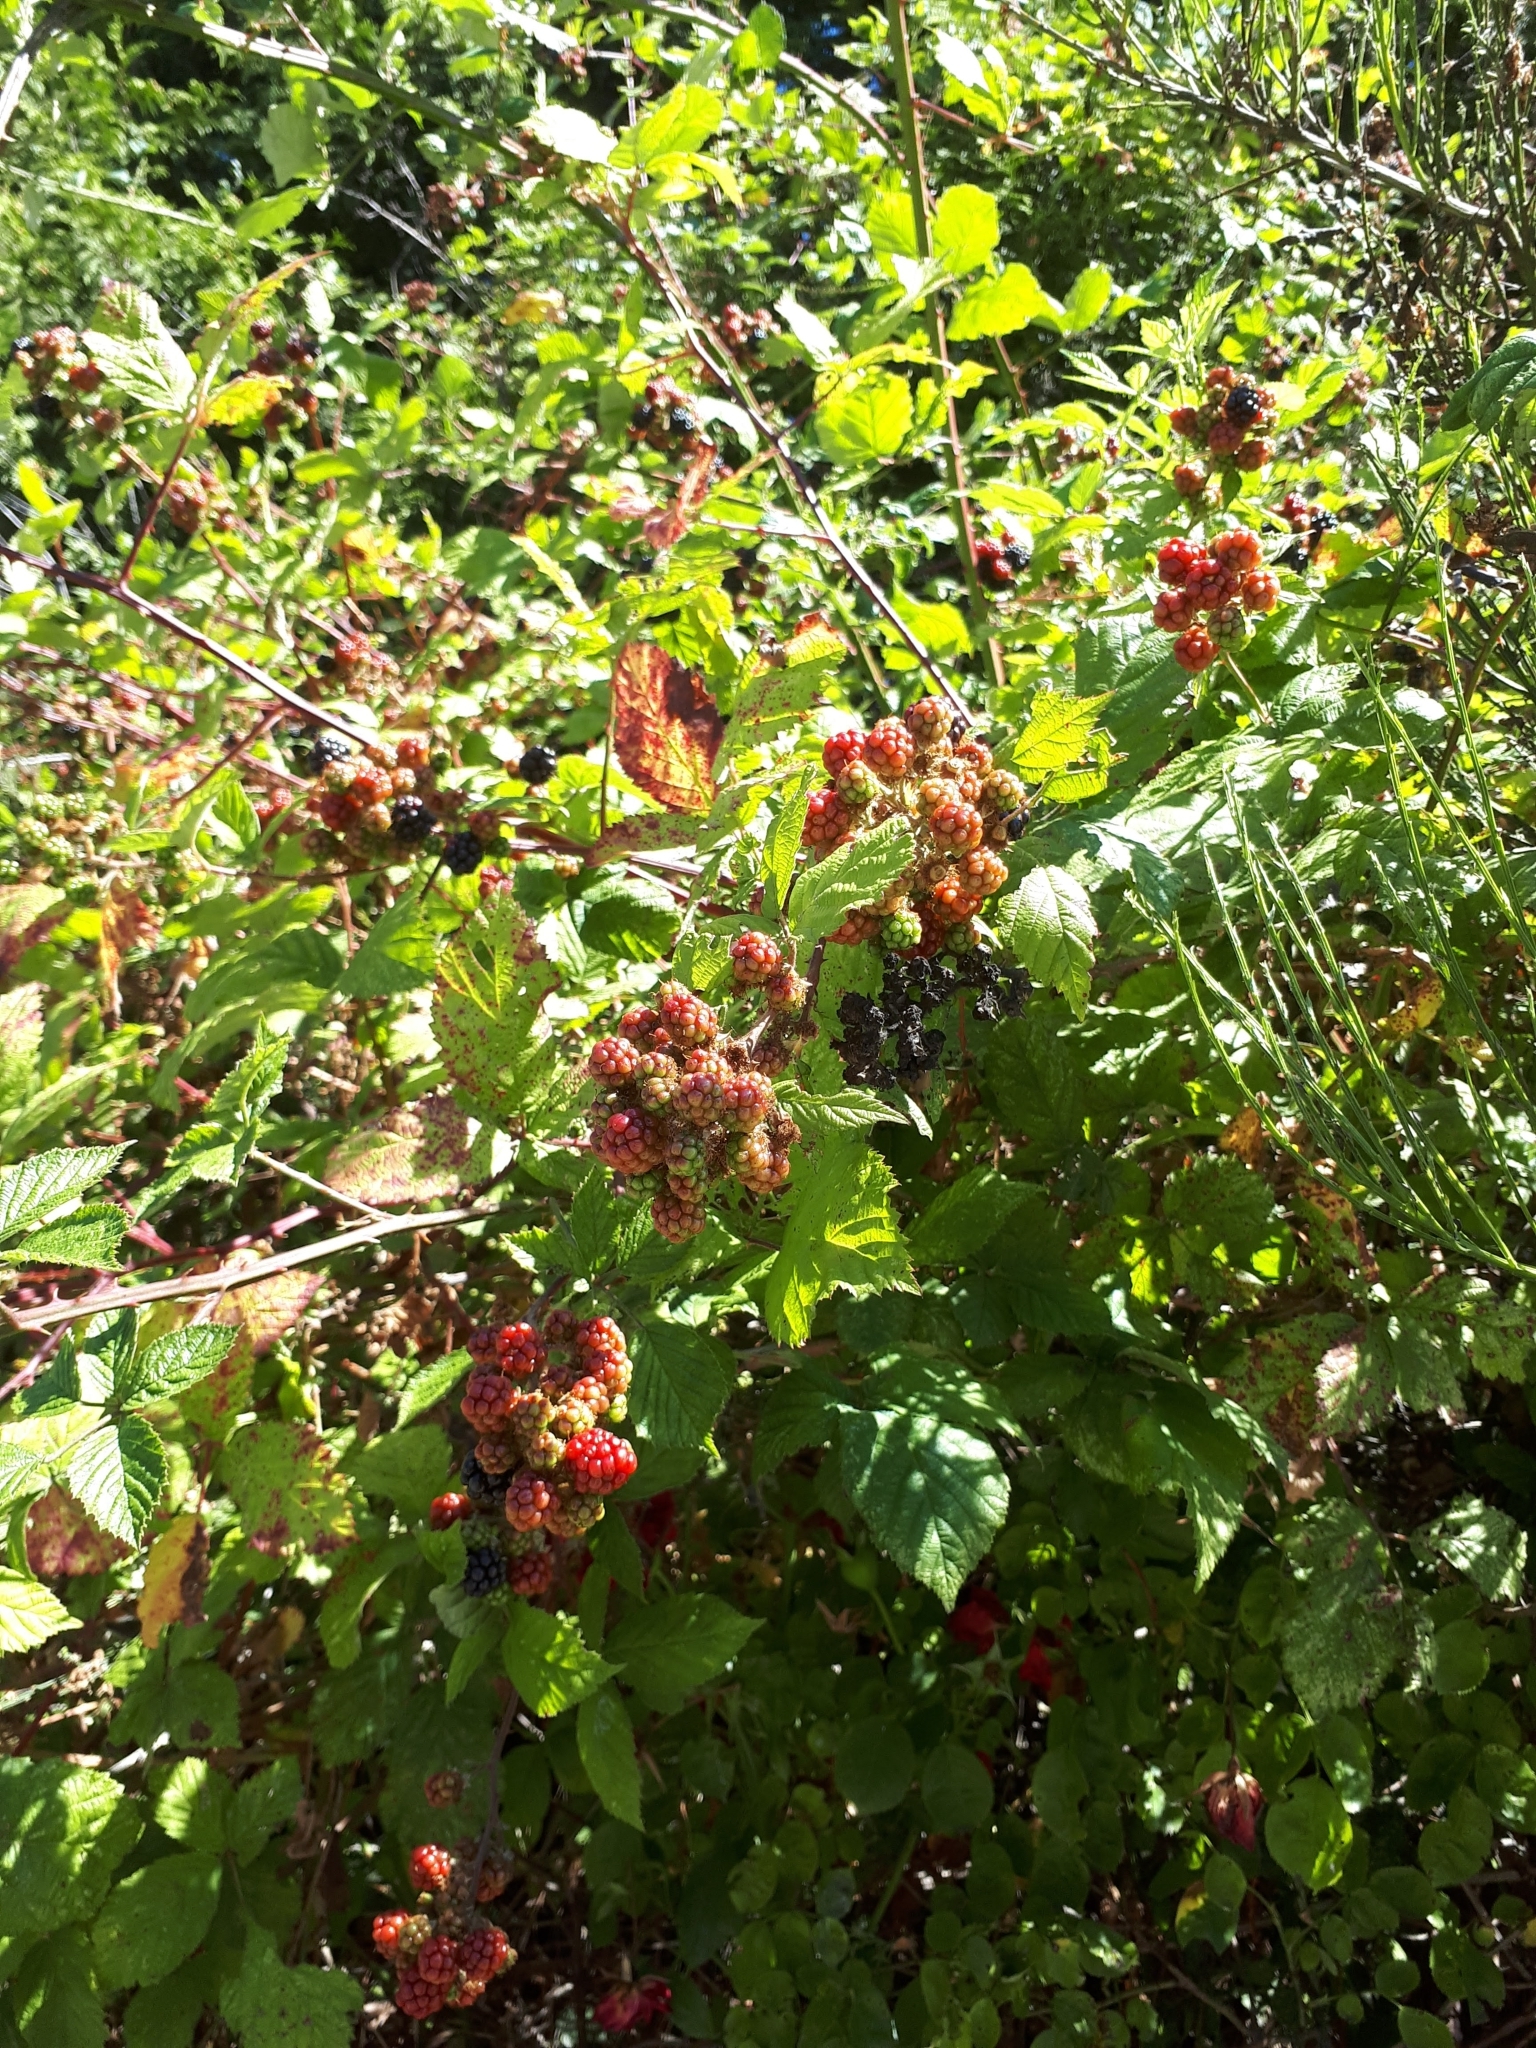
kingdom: Plantae
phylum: Tracheophyta
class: Magnoliopsida
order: Rosales
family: Rosaceae
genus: Rubus
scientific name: Rubus ursinus
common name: Pacific blackberry
